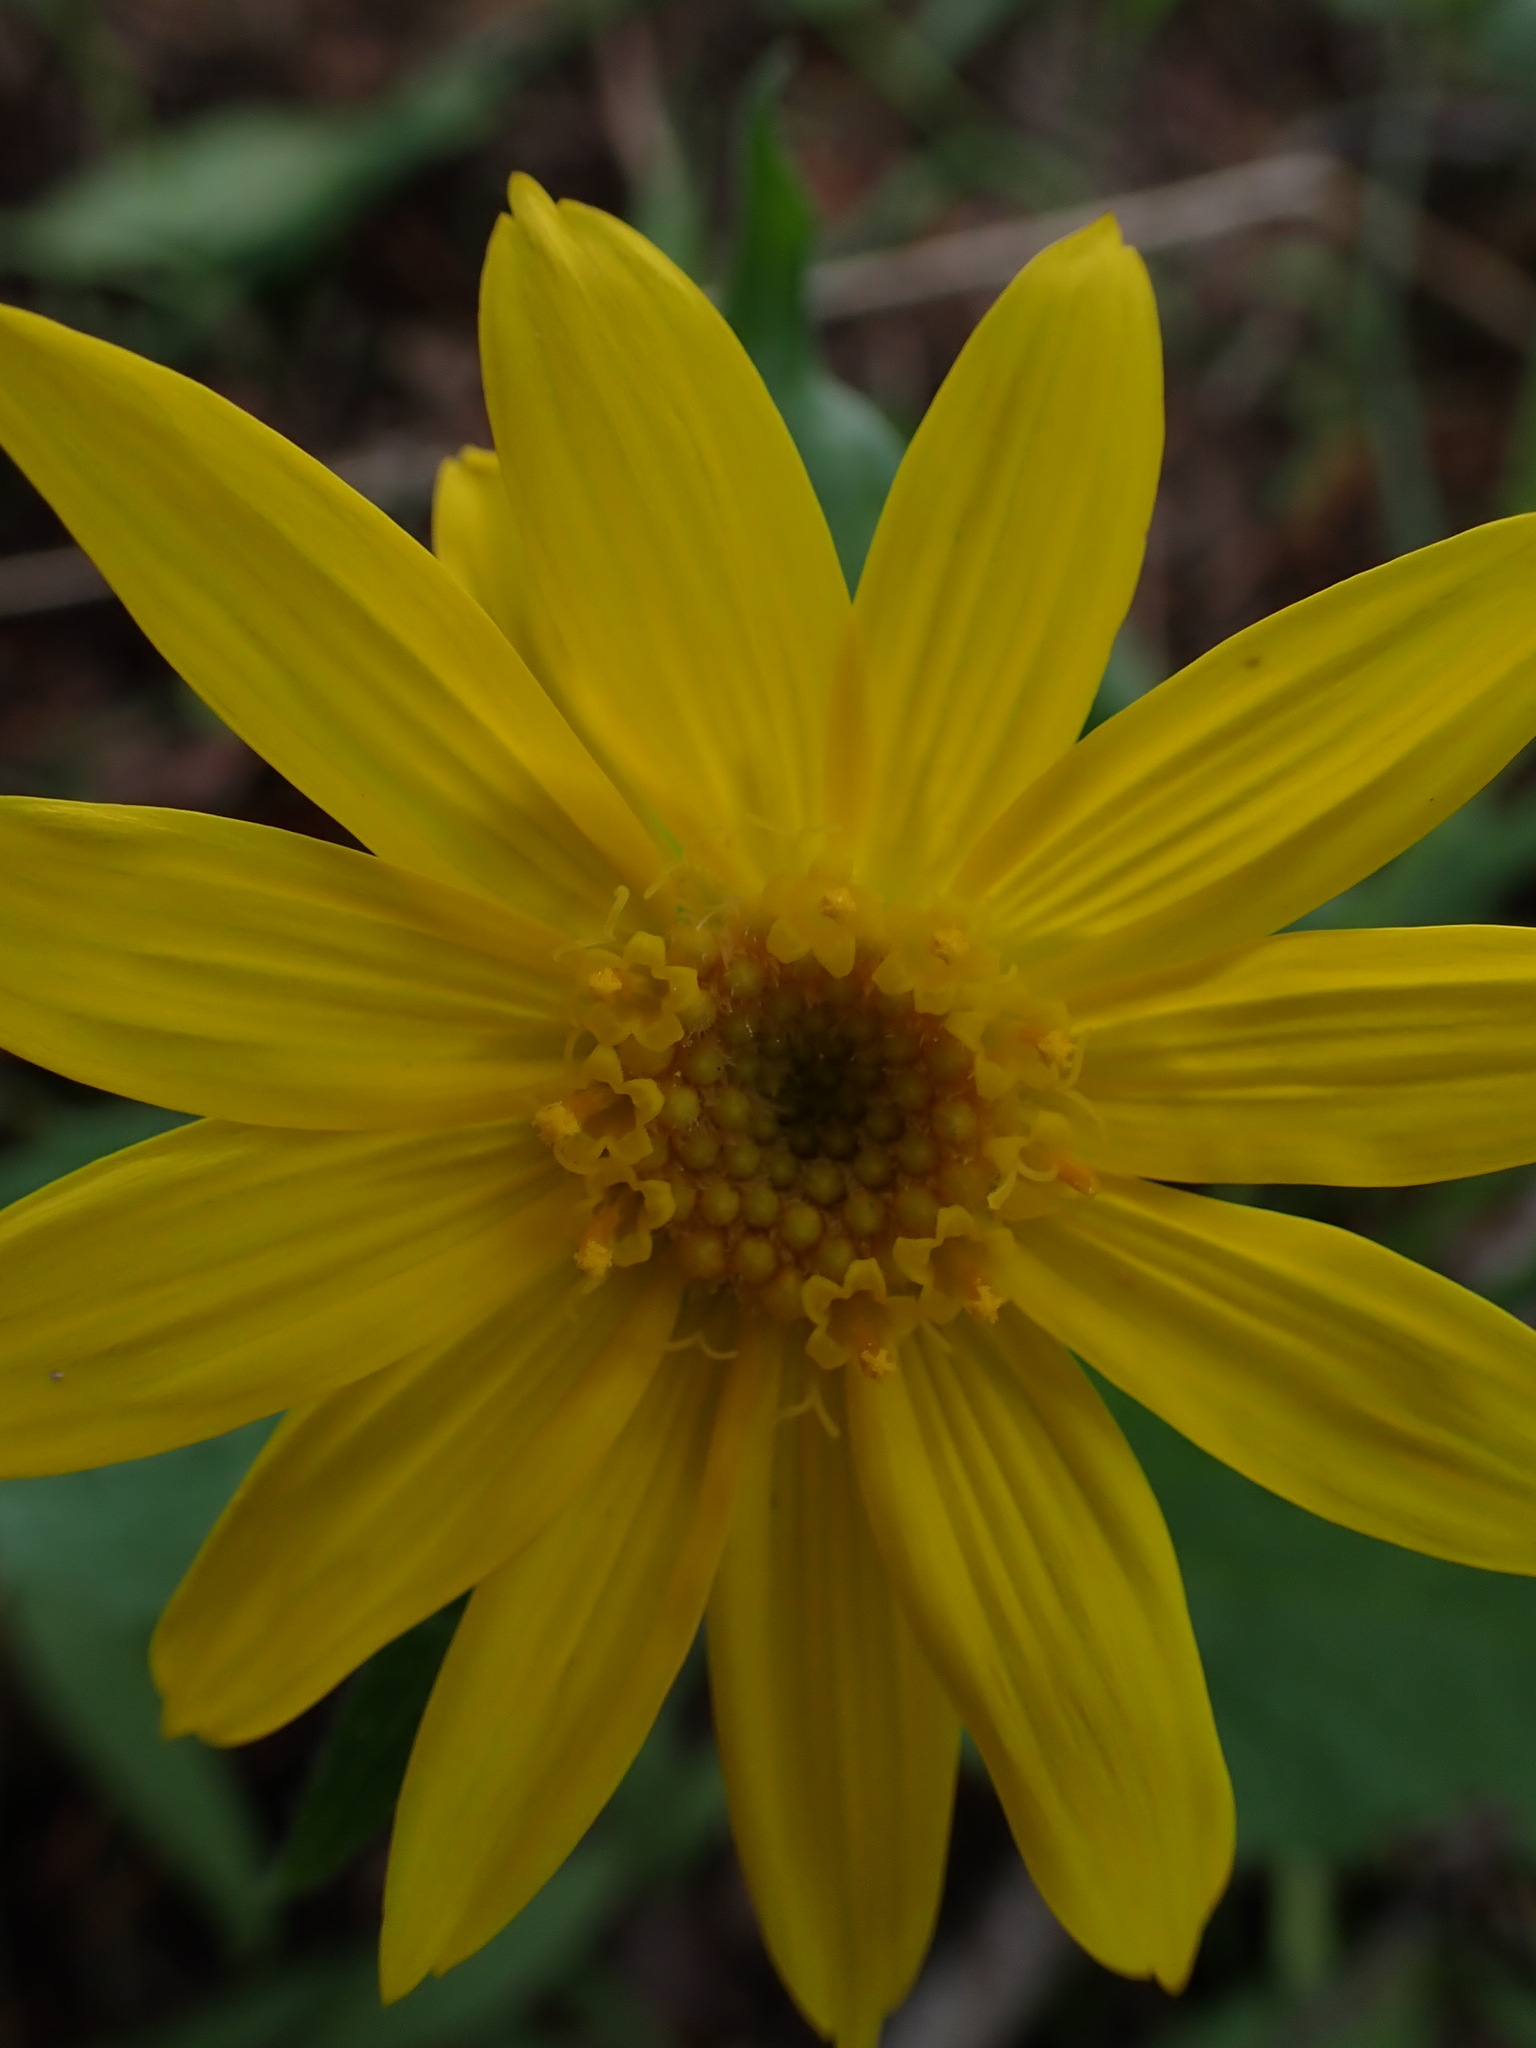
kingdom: Plantae
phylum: Tracheophyta
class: Magnoliopsida
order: Asterales
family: Asteraceae
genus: Arnica
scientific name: Arnica cordifolia
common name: Heart-leaf arnica
